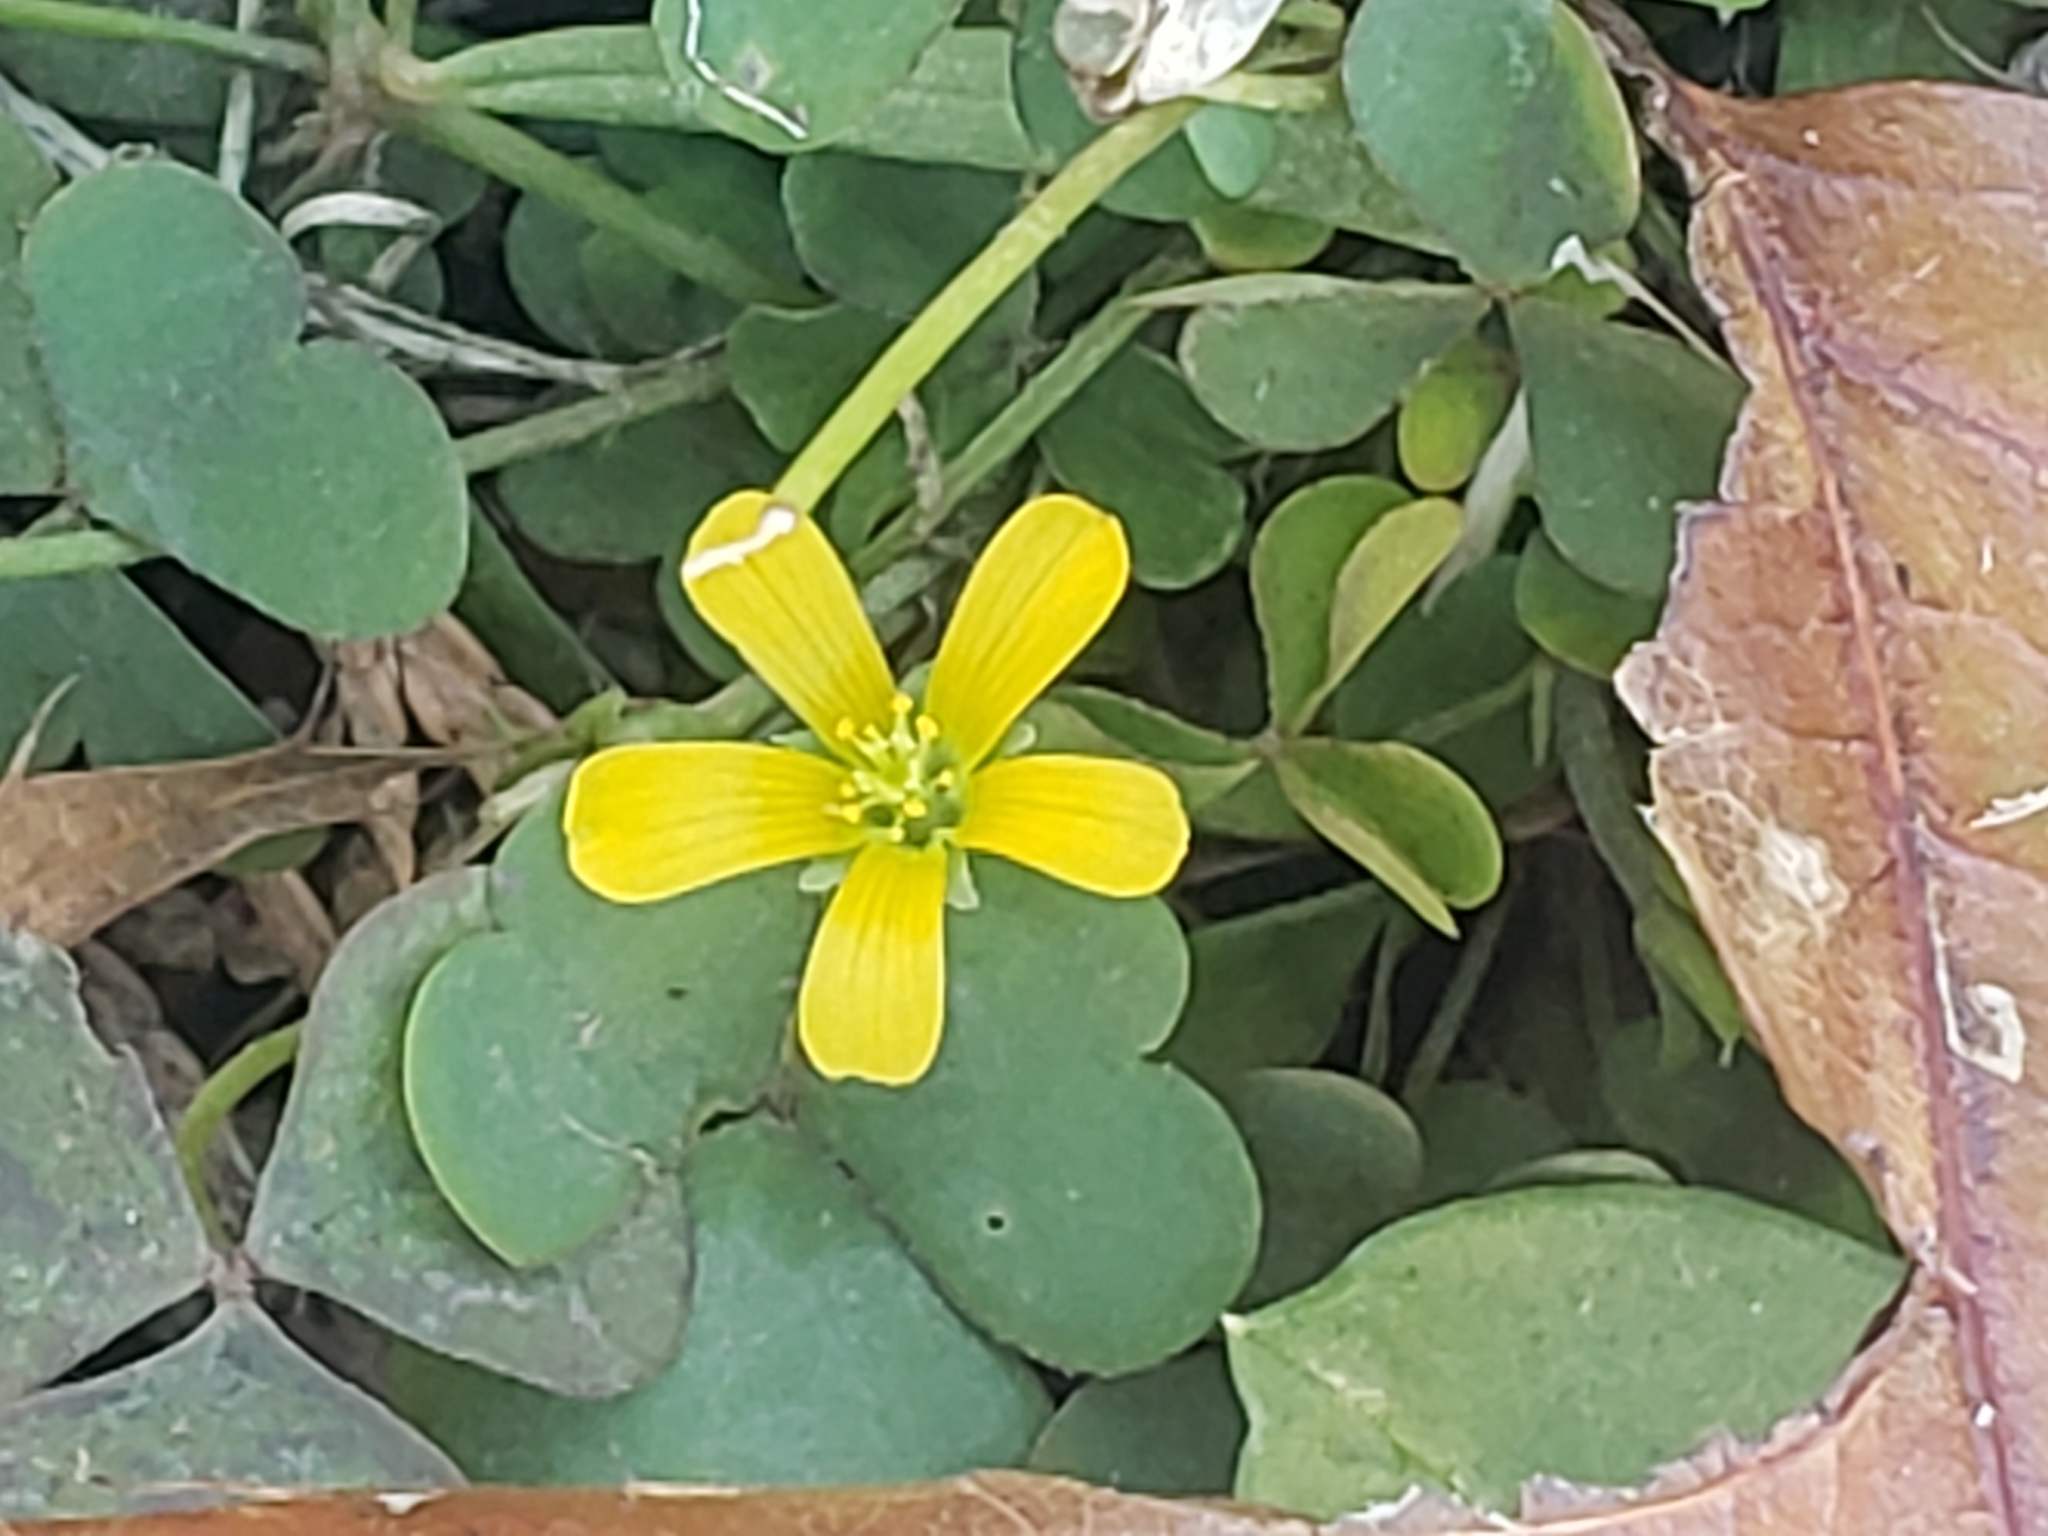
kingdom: Plantae
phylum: Tracheophyta
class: Magnoliopsida
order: Oxalidales
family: Oxalidaceae
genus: Oxalis
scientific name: Oxalis corniculata
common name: Procumbent yellow-sorrel
